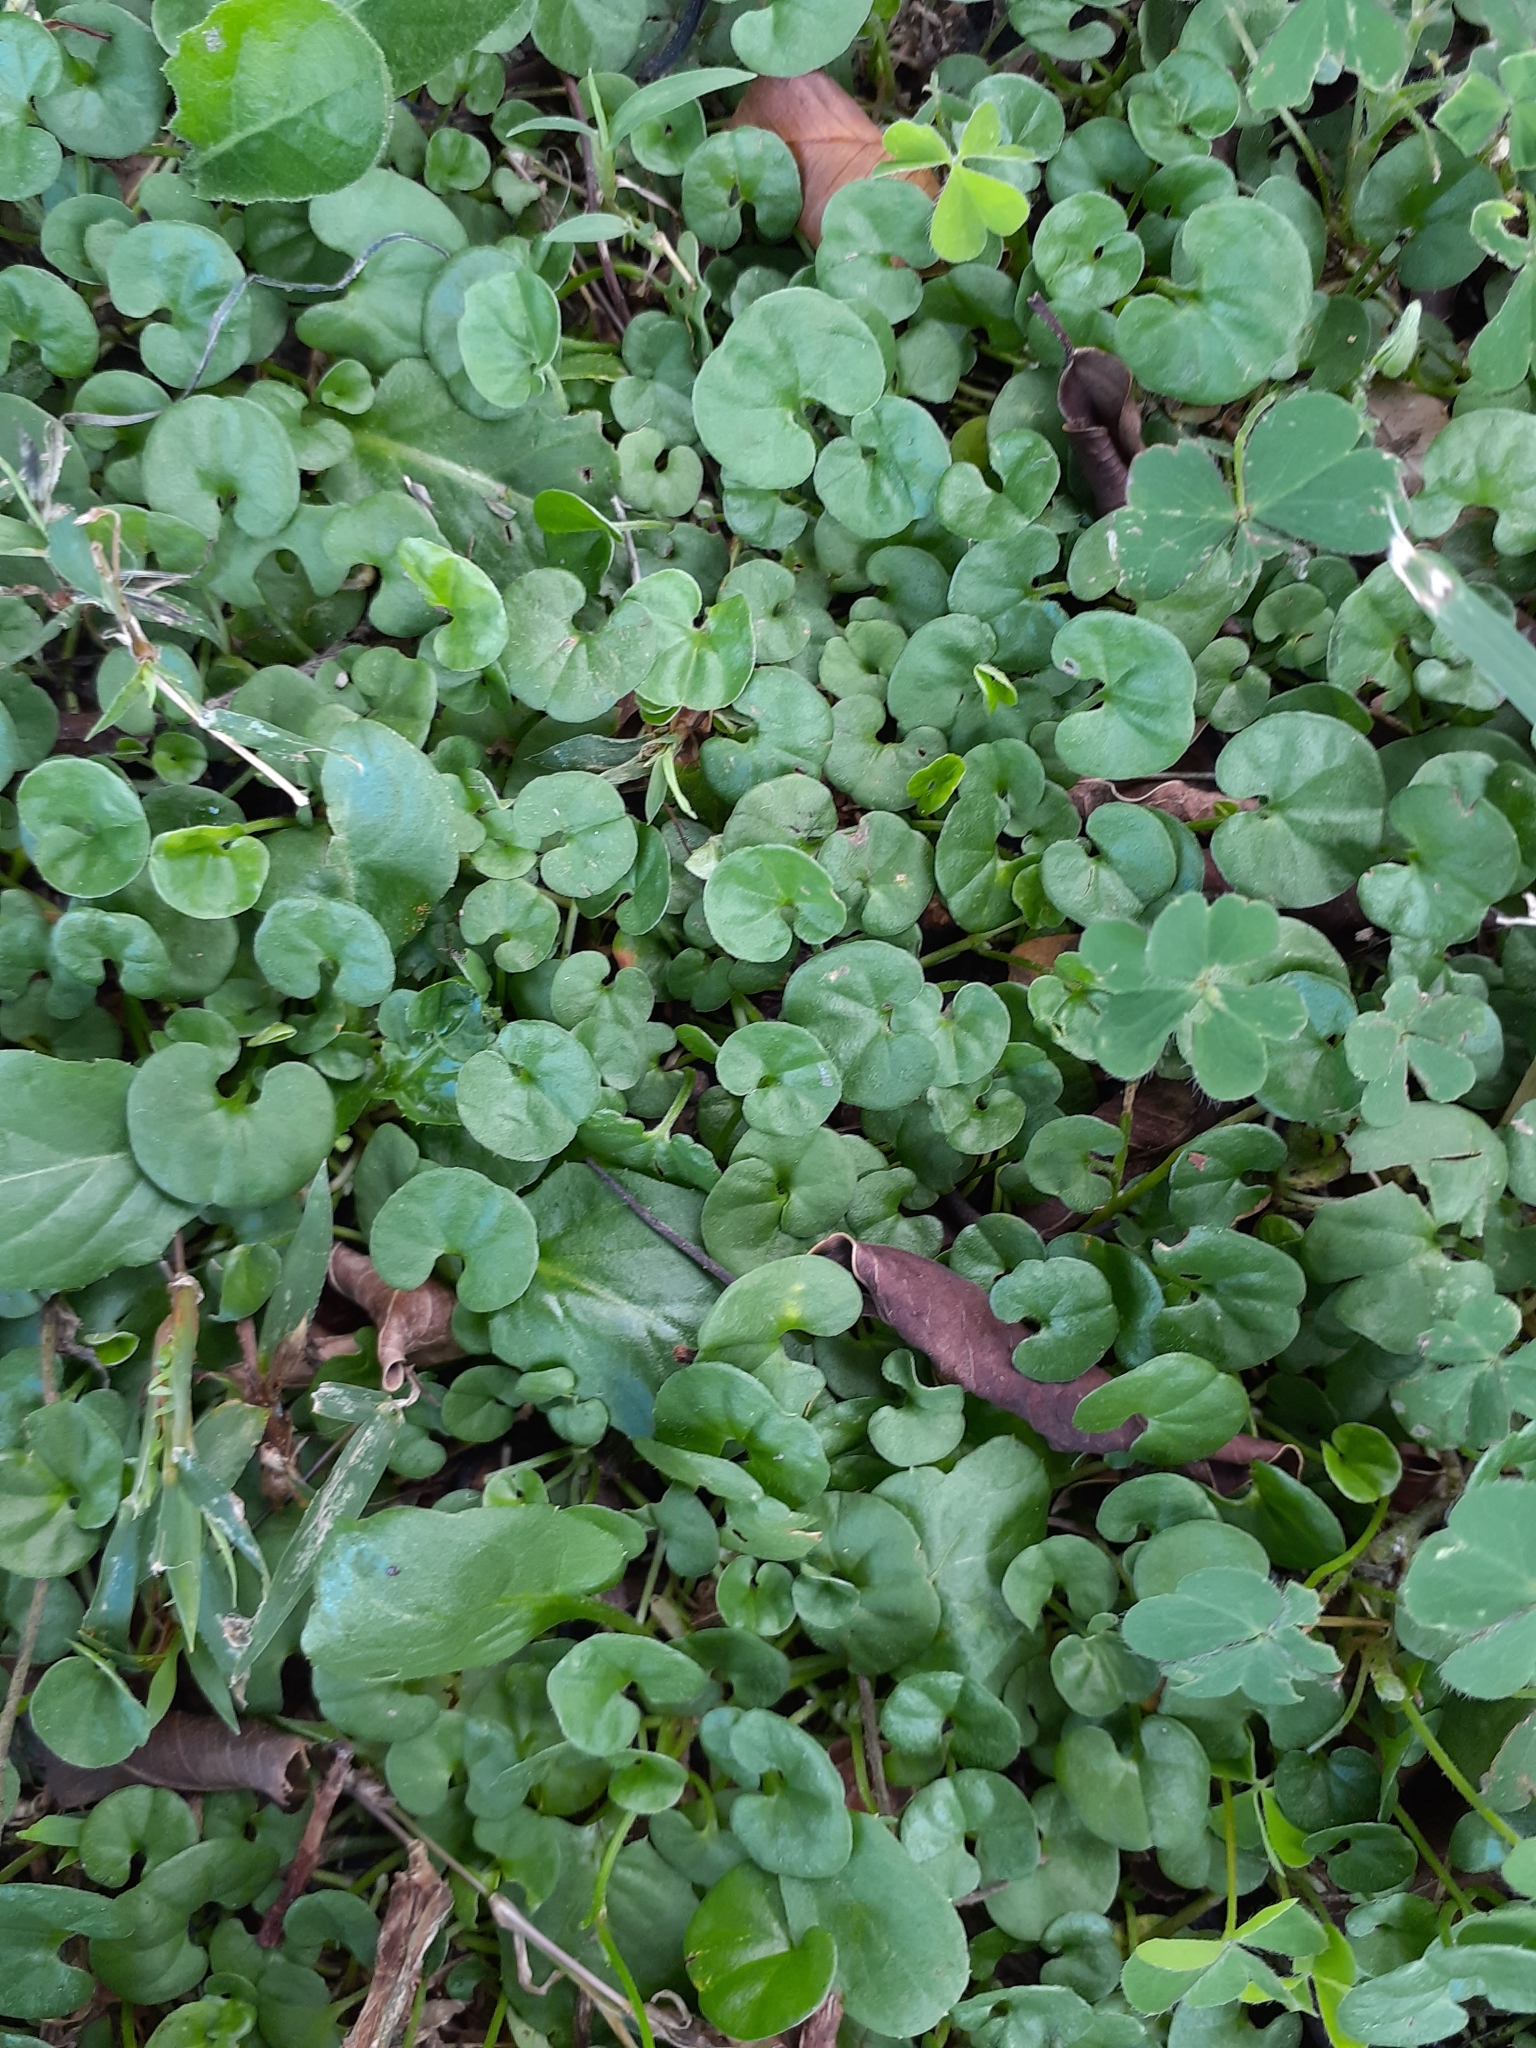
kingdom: Plantae
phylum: Tracheophyta
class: Magnoliopsida
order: Solanales
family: Convolvulaceae
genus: Dichondra
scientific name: Dichondra micrantha
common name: Kidneyweed
